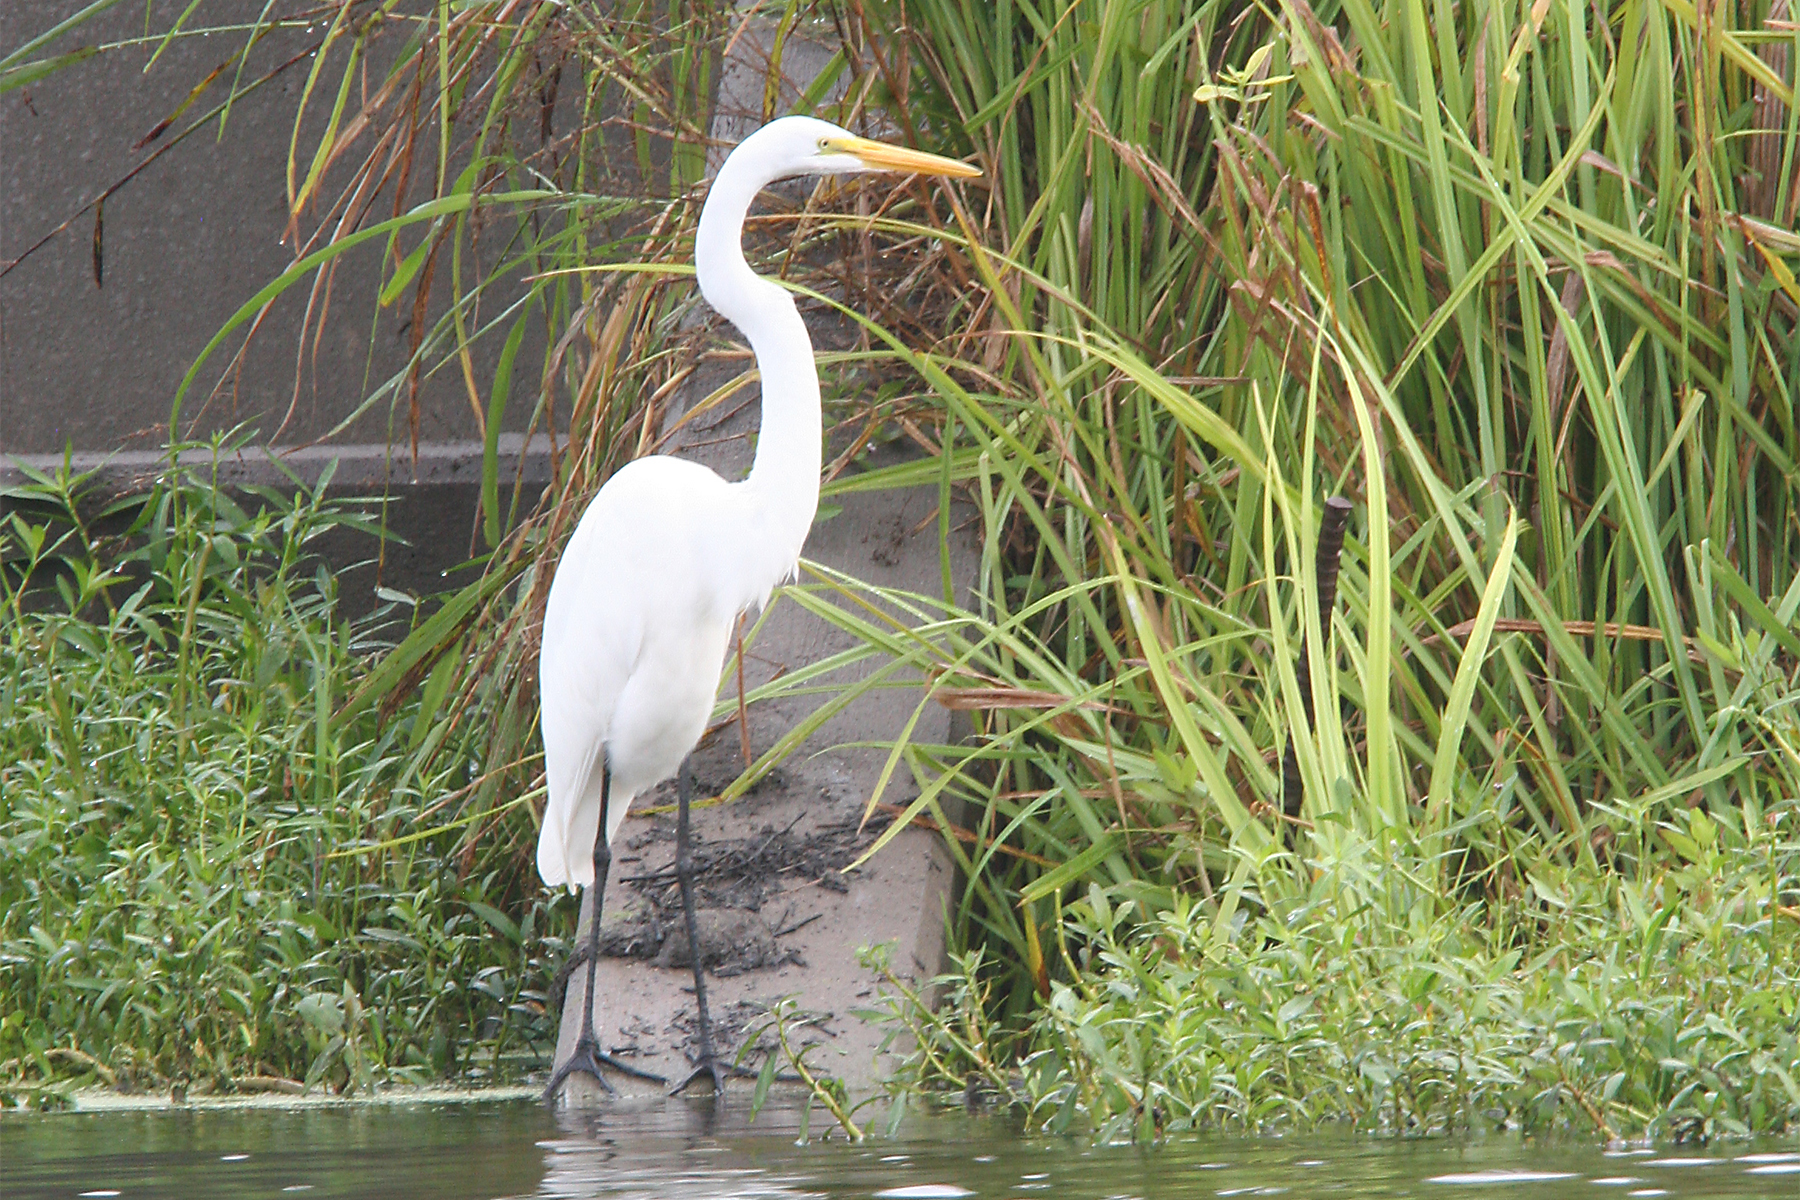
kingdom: Animalia
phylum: Chordata
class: Aves
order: Pelecaniformes
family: Ardeidae
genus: Ardea
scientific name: Ardea alba
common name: Great egret
